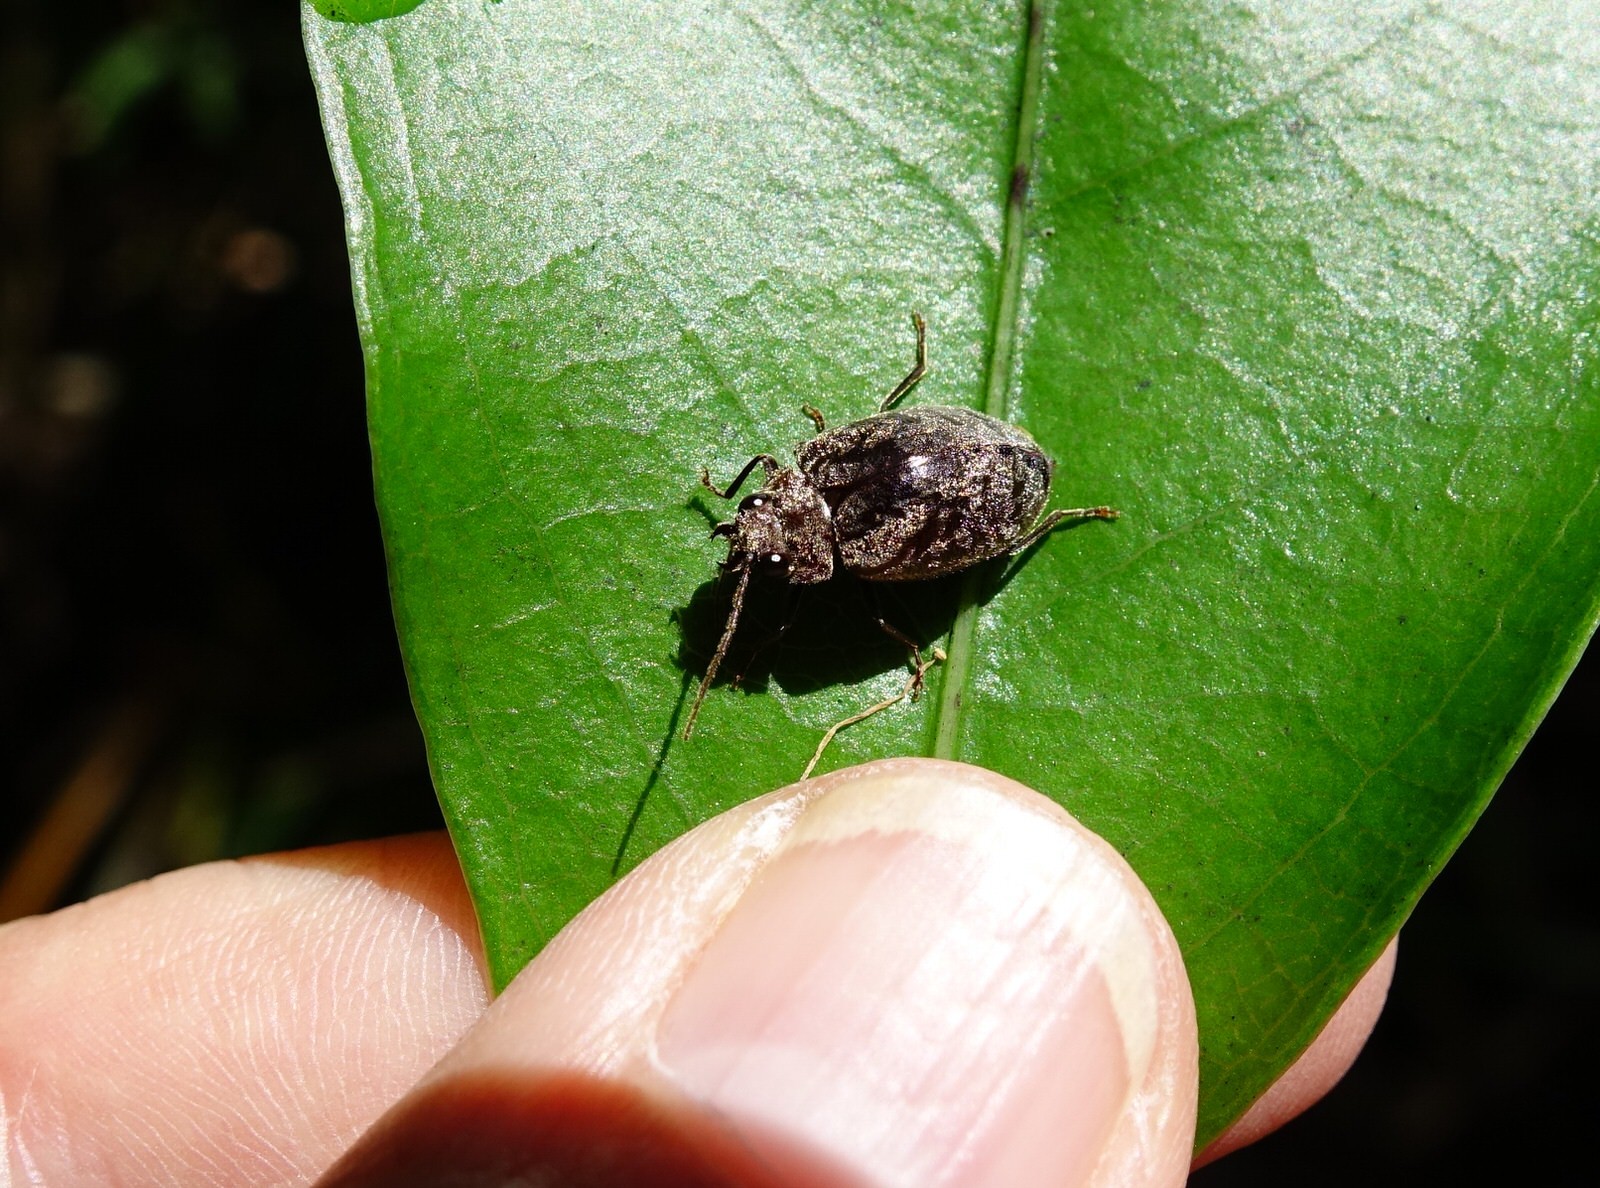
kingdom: Animalia
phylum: Arthropoda
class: Insecta
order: Coleoptera
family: Scirtidae
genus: Byrrhopsis
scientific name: Byrrhopsis gravidus
